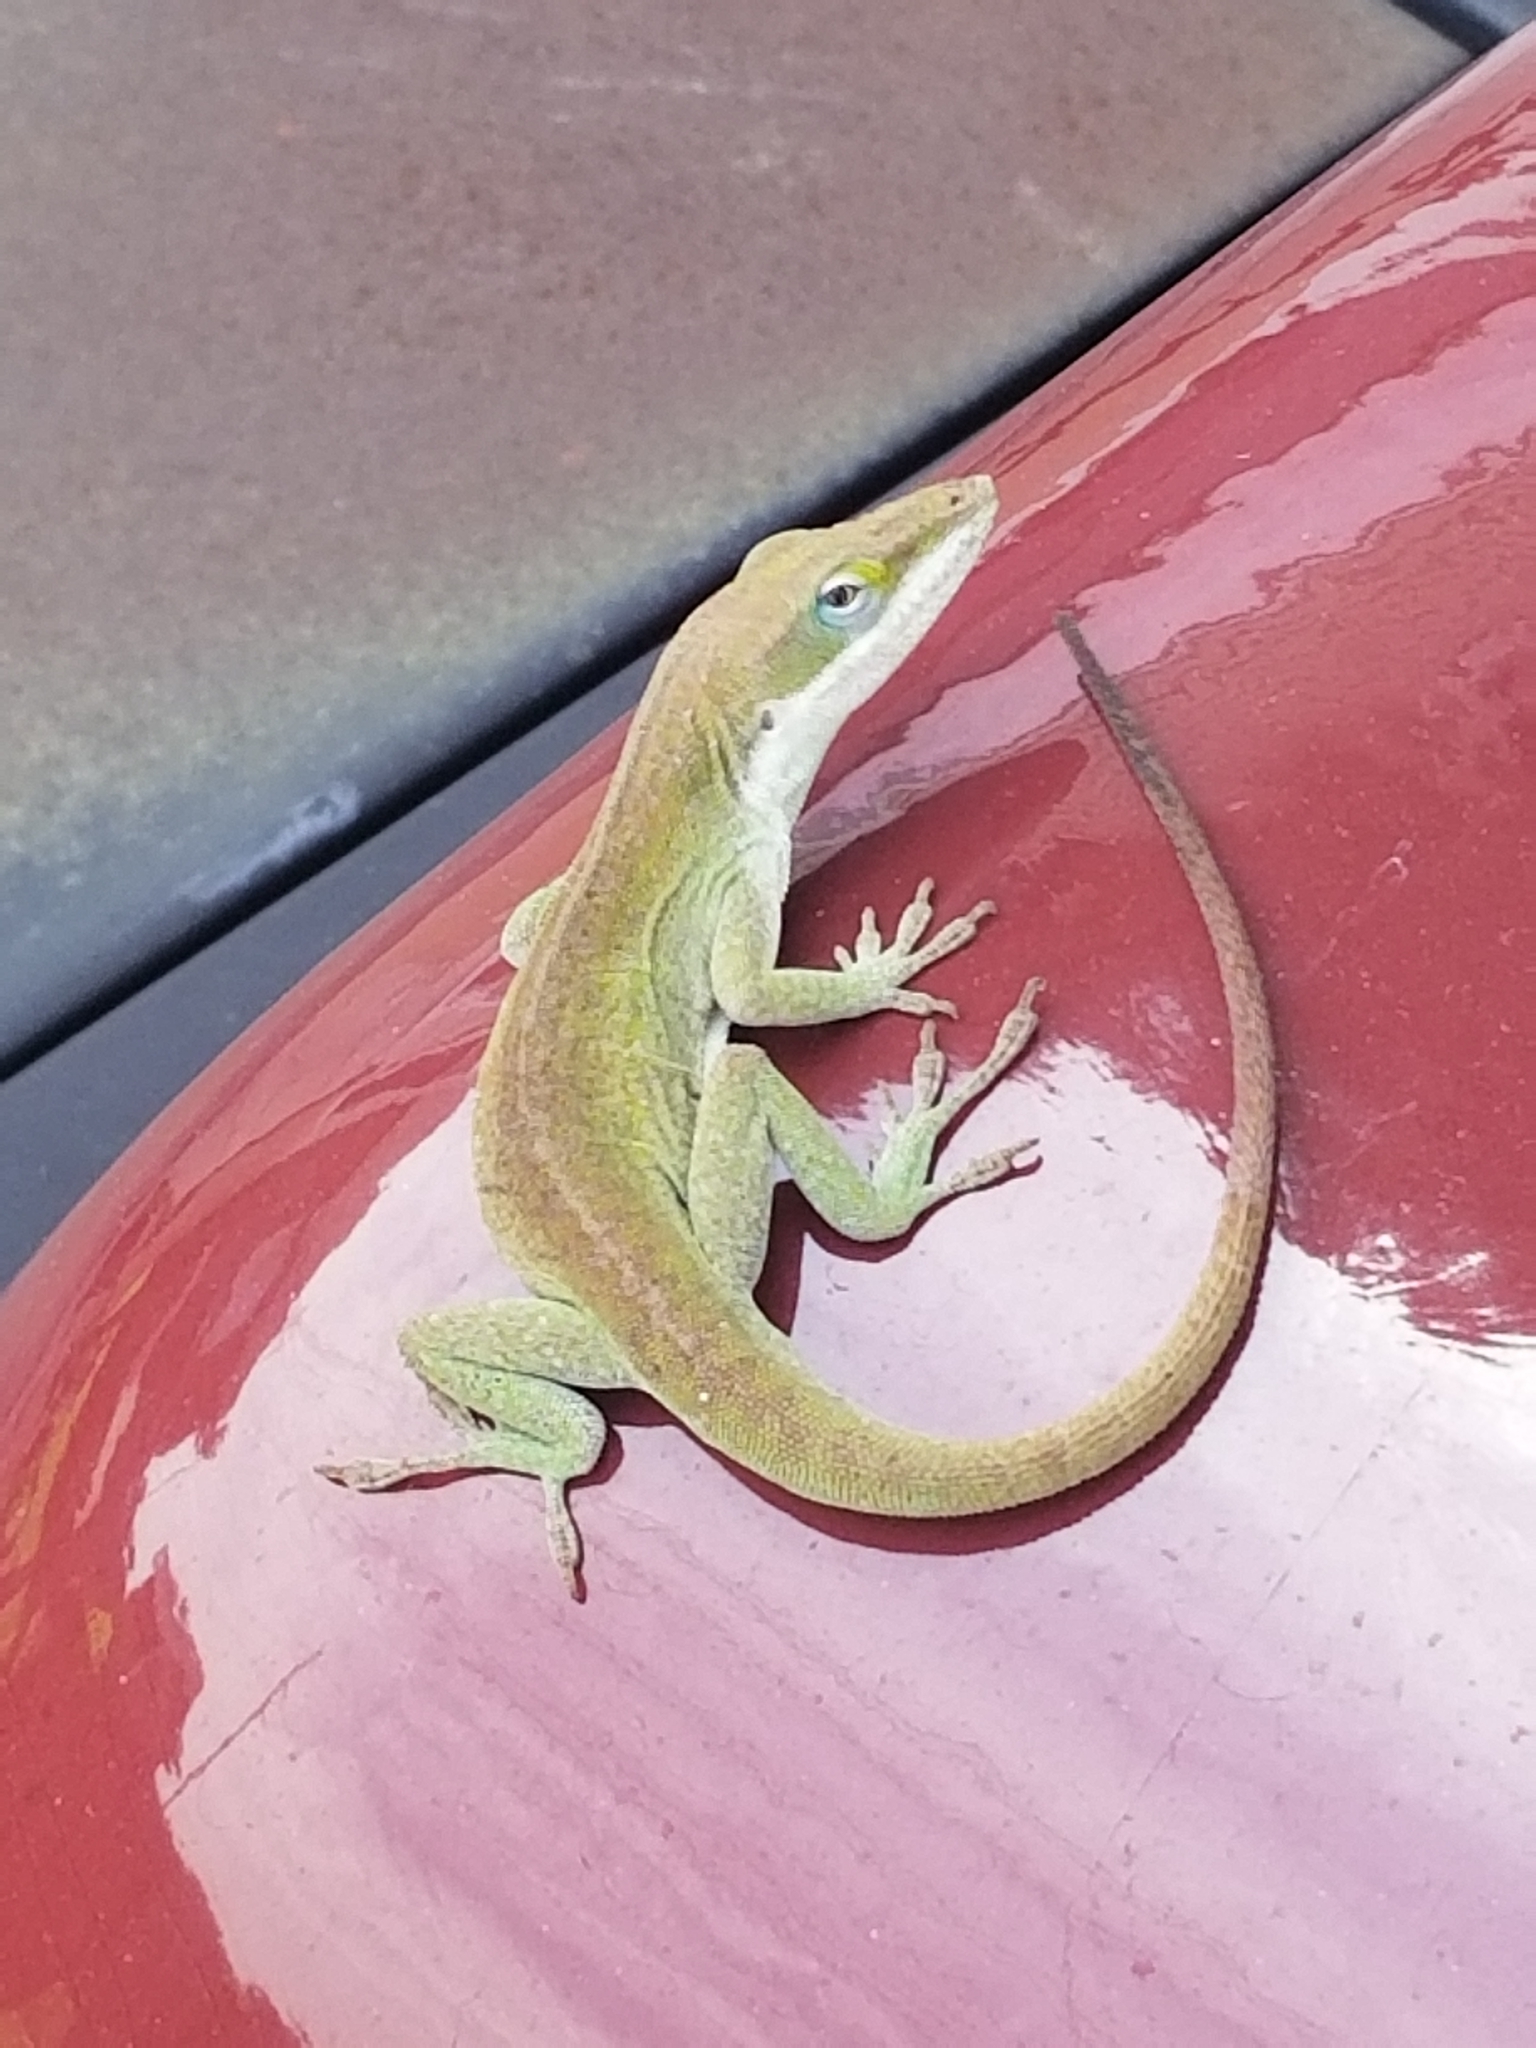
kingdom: Animalia
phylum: Chordata
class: Squamata
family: Dactyloidae
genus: Anolis
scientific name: Anolis carolinensis
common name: Green anole
